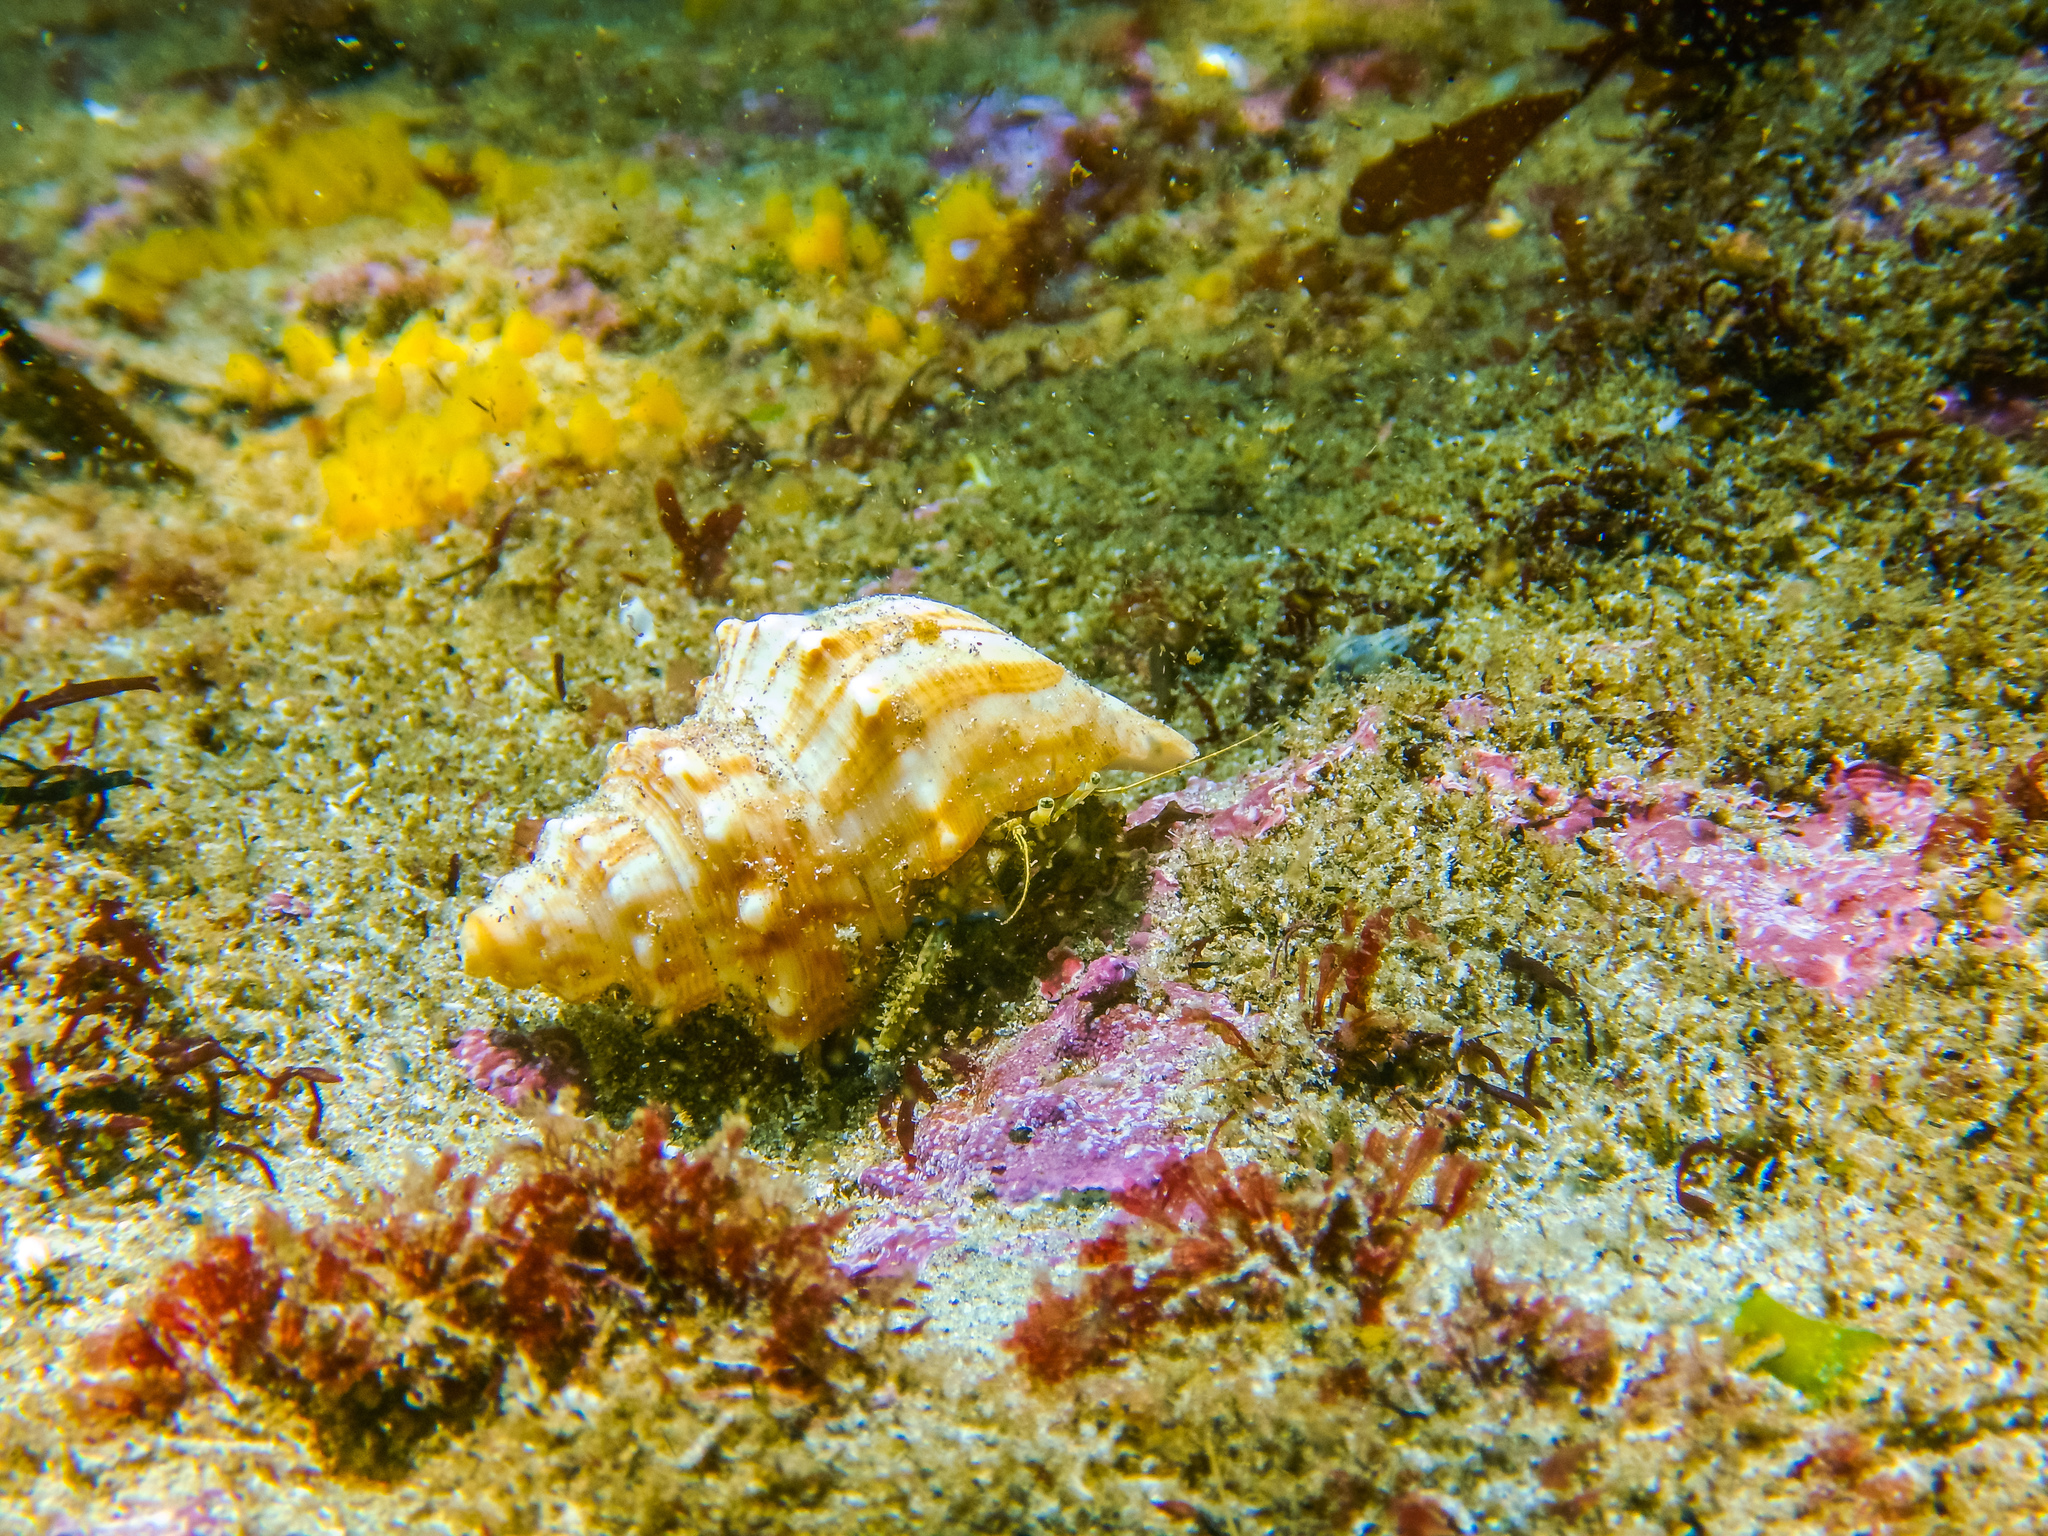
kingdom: Animalia
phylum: Arthropoda
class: Malacostraca
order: Decapoda
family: Paguridae
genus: Pagurus
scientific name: Pagurus novizealandiae
